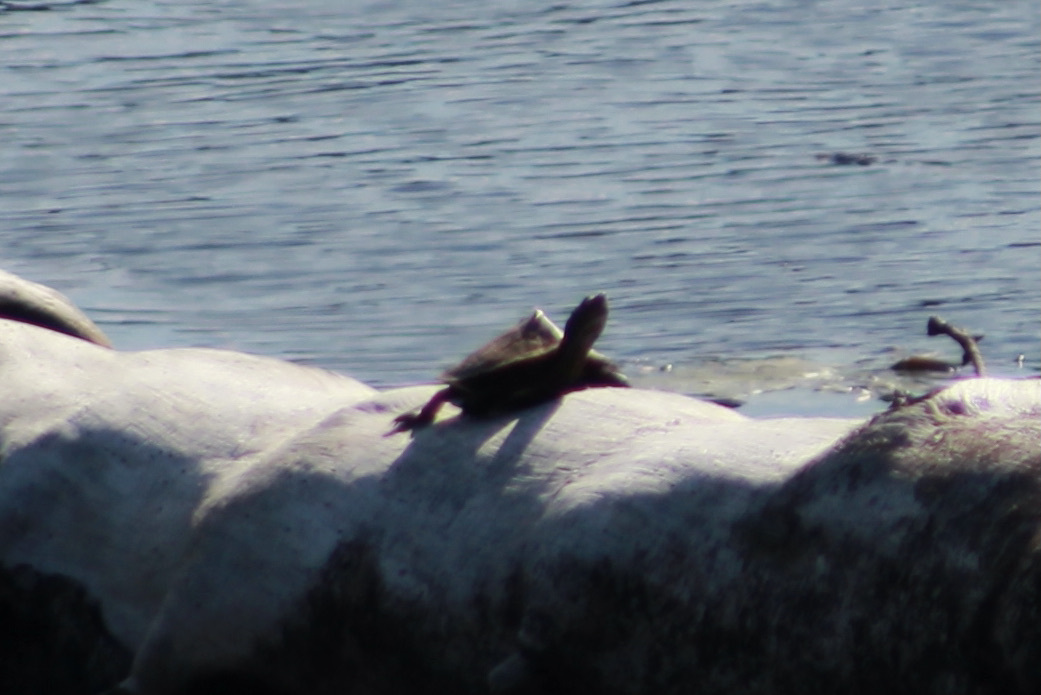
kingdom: Animalia
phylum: Chordata
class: Testudines
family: Emydidae
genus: Graptemys
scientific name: Graptemys pseudogeographica
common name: False map turtle
